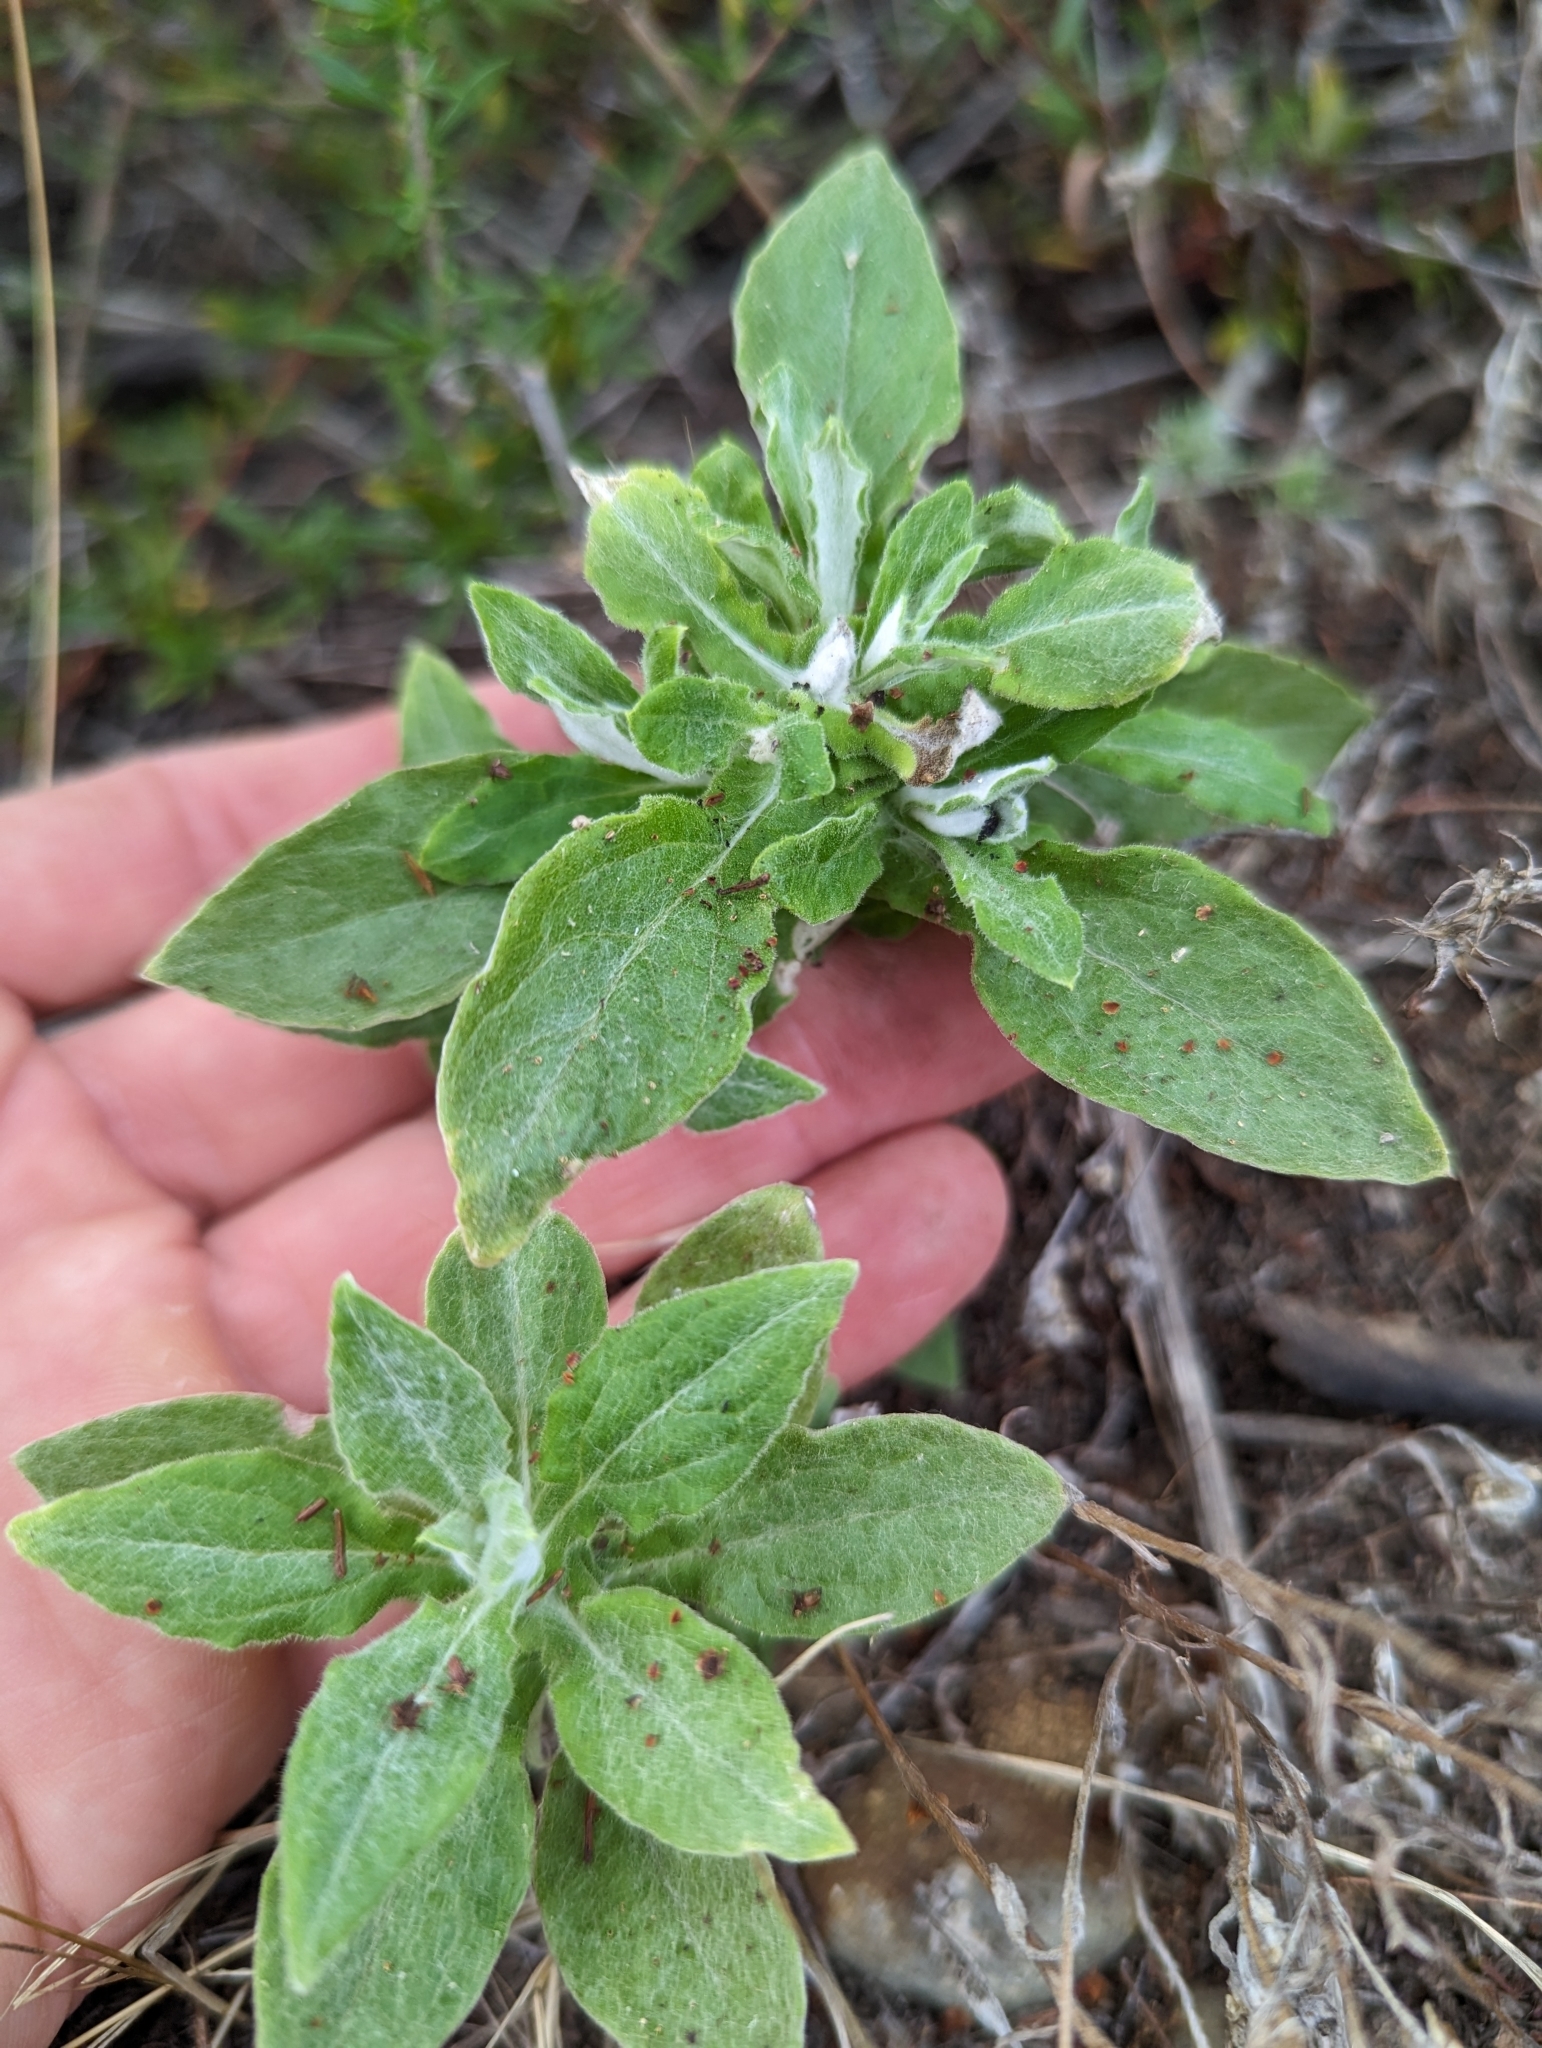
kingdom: Plantae
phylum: Tracheophyta
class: Magnoliopsida
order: Asterales
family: Asteraceae
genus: Pseudognaphalium
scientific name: Pseudognaphalium biolettii
